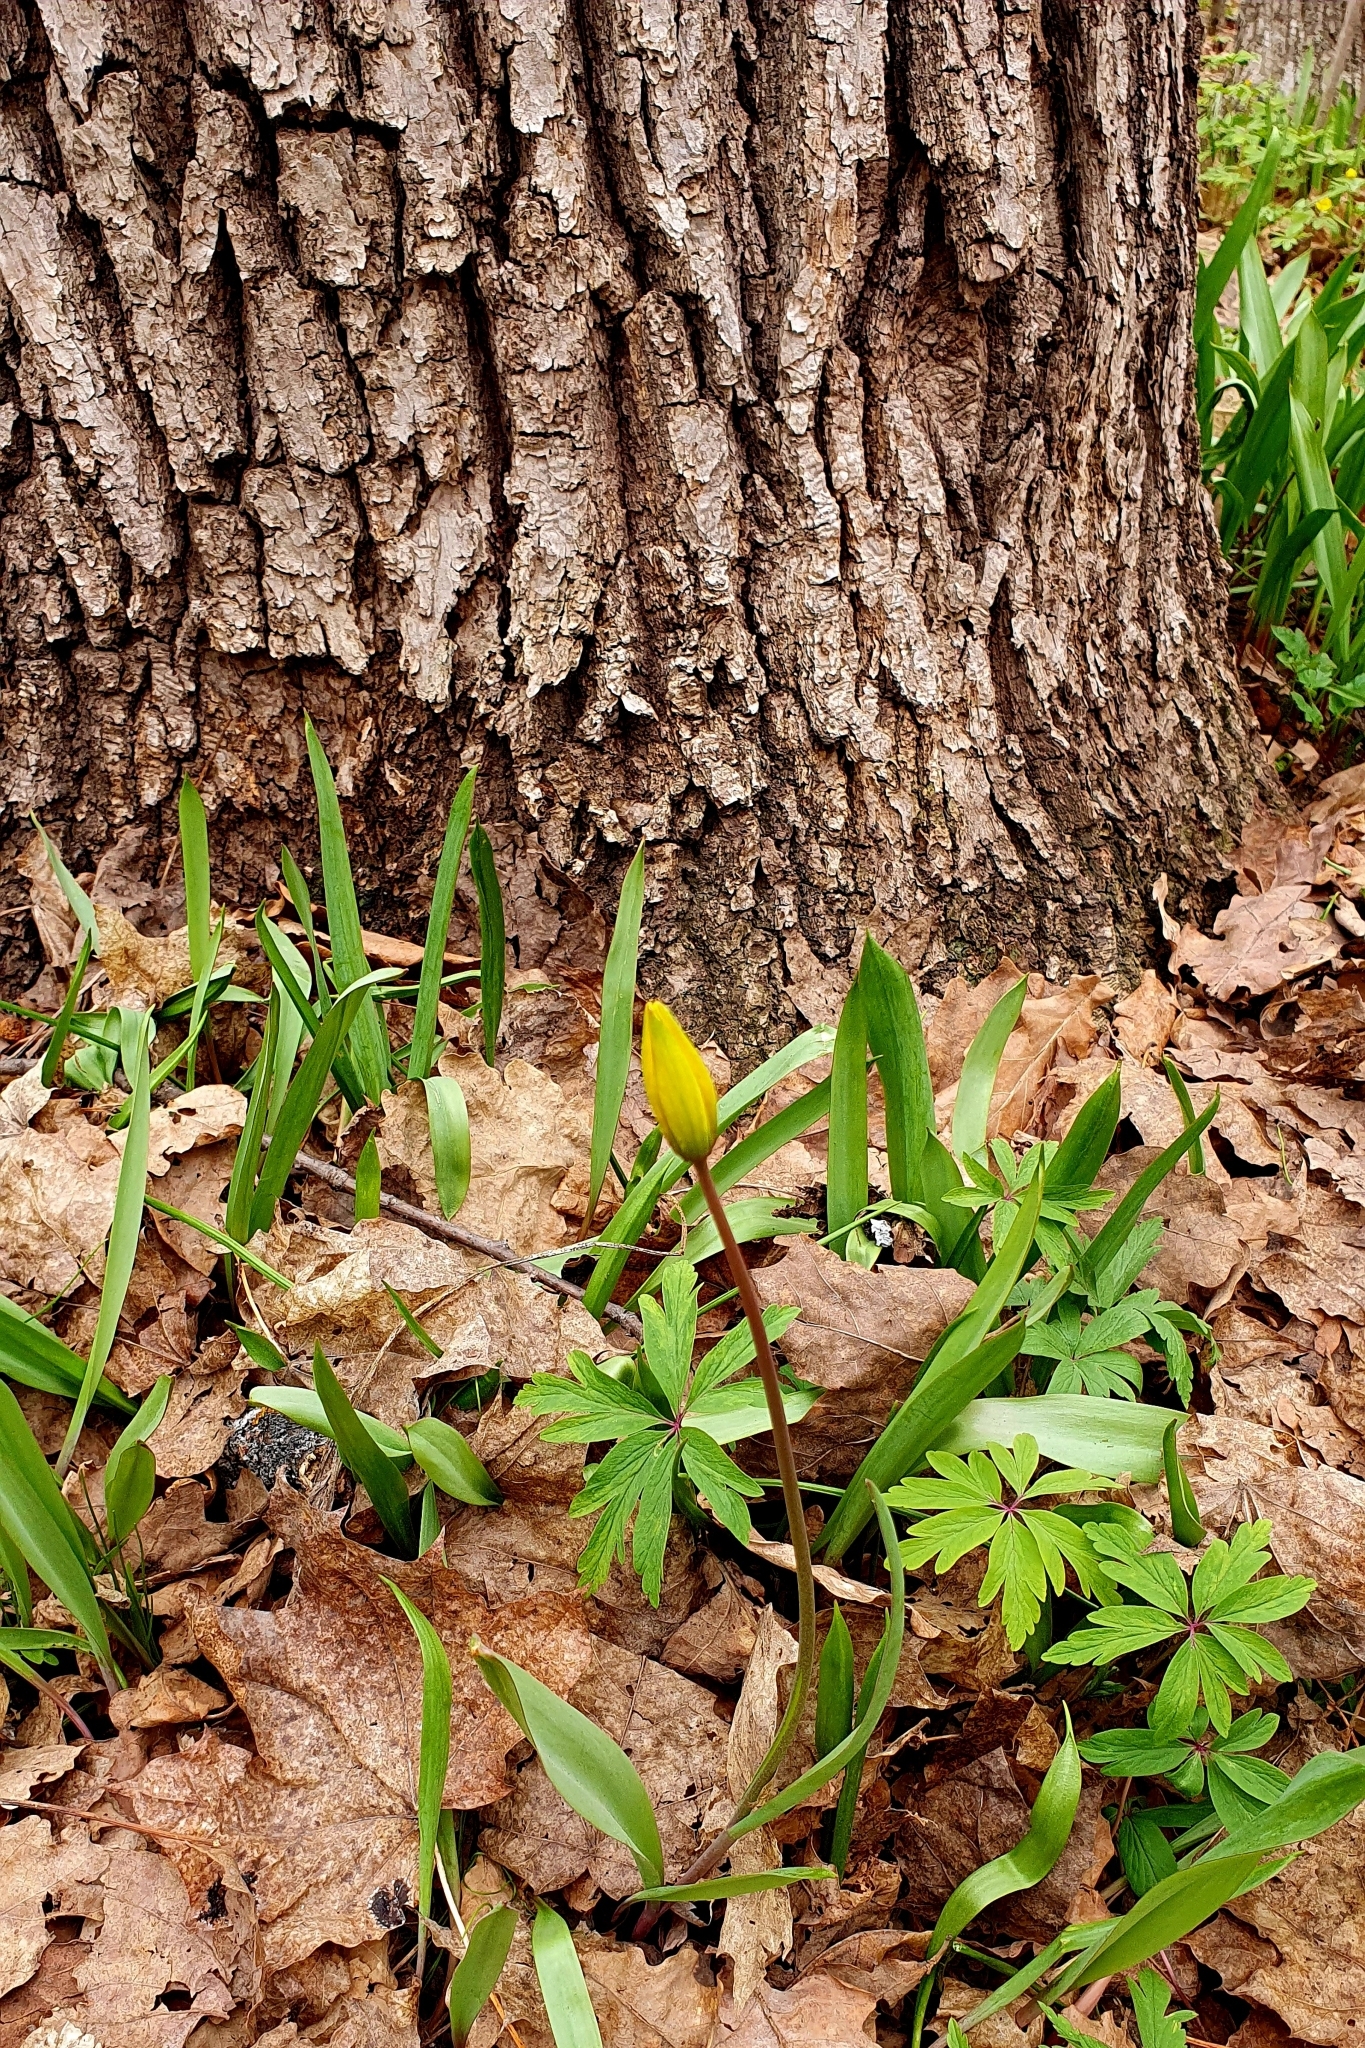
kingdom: Plantae
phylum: Tracheophyta
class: Liliopsida
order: Liliales
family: Liliaceae
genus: Tulipa
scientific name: Tulipa sylvestris
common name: Wild tulip
